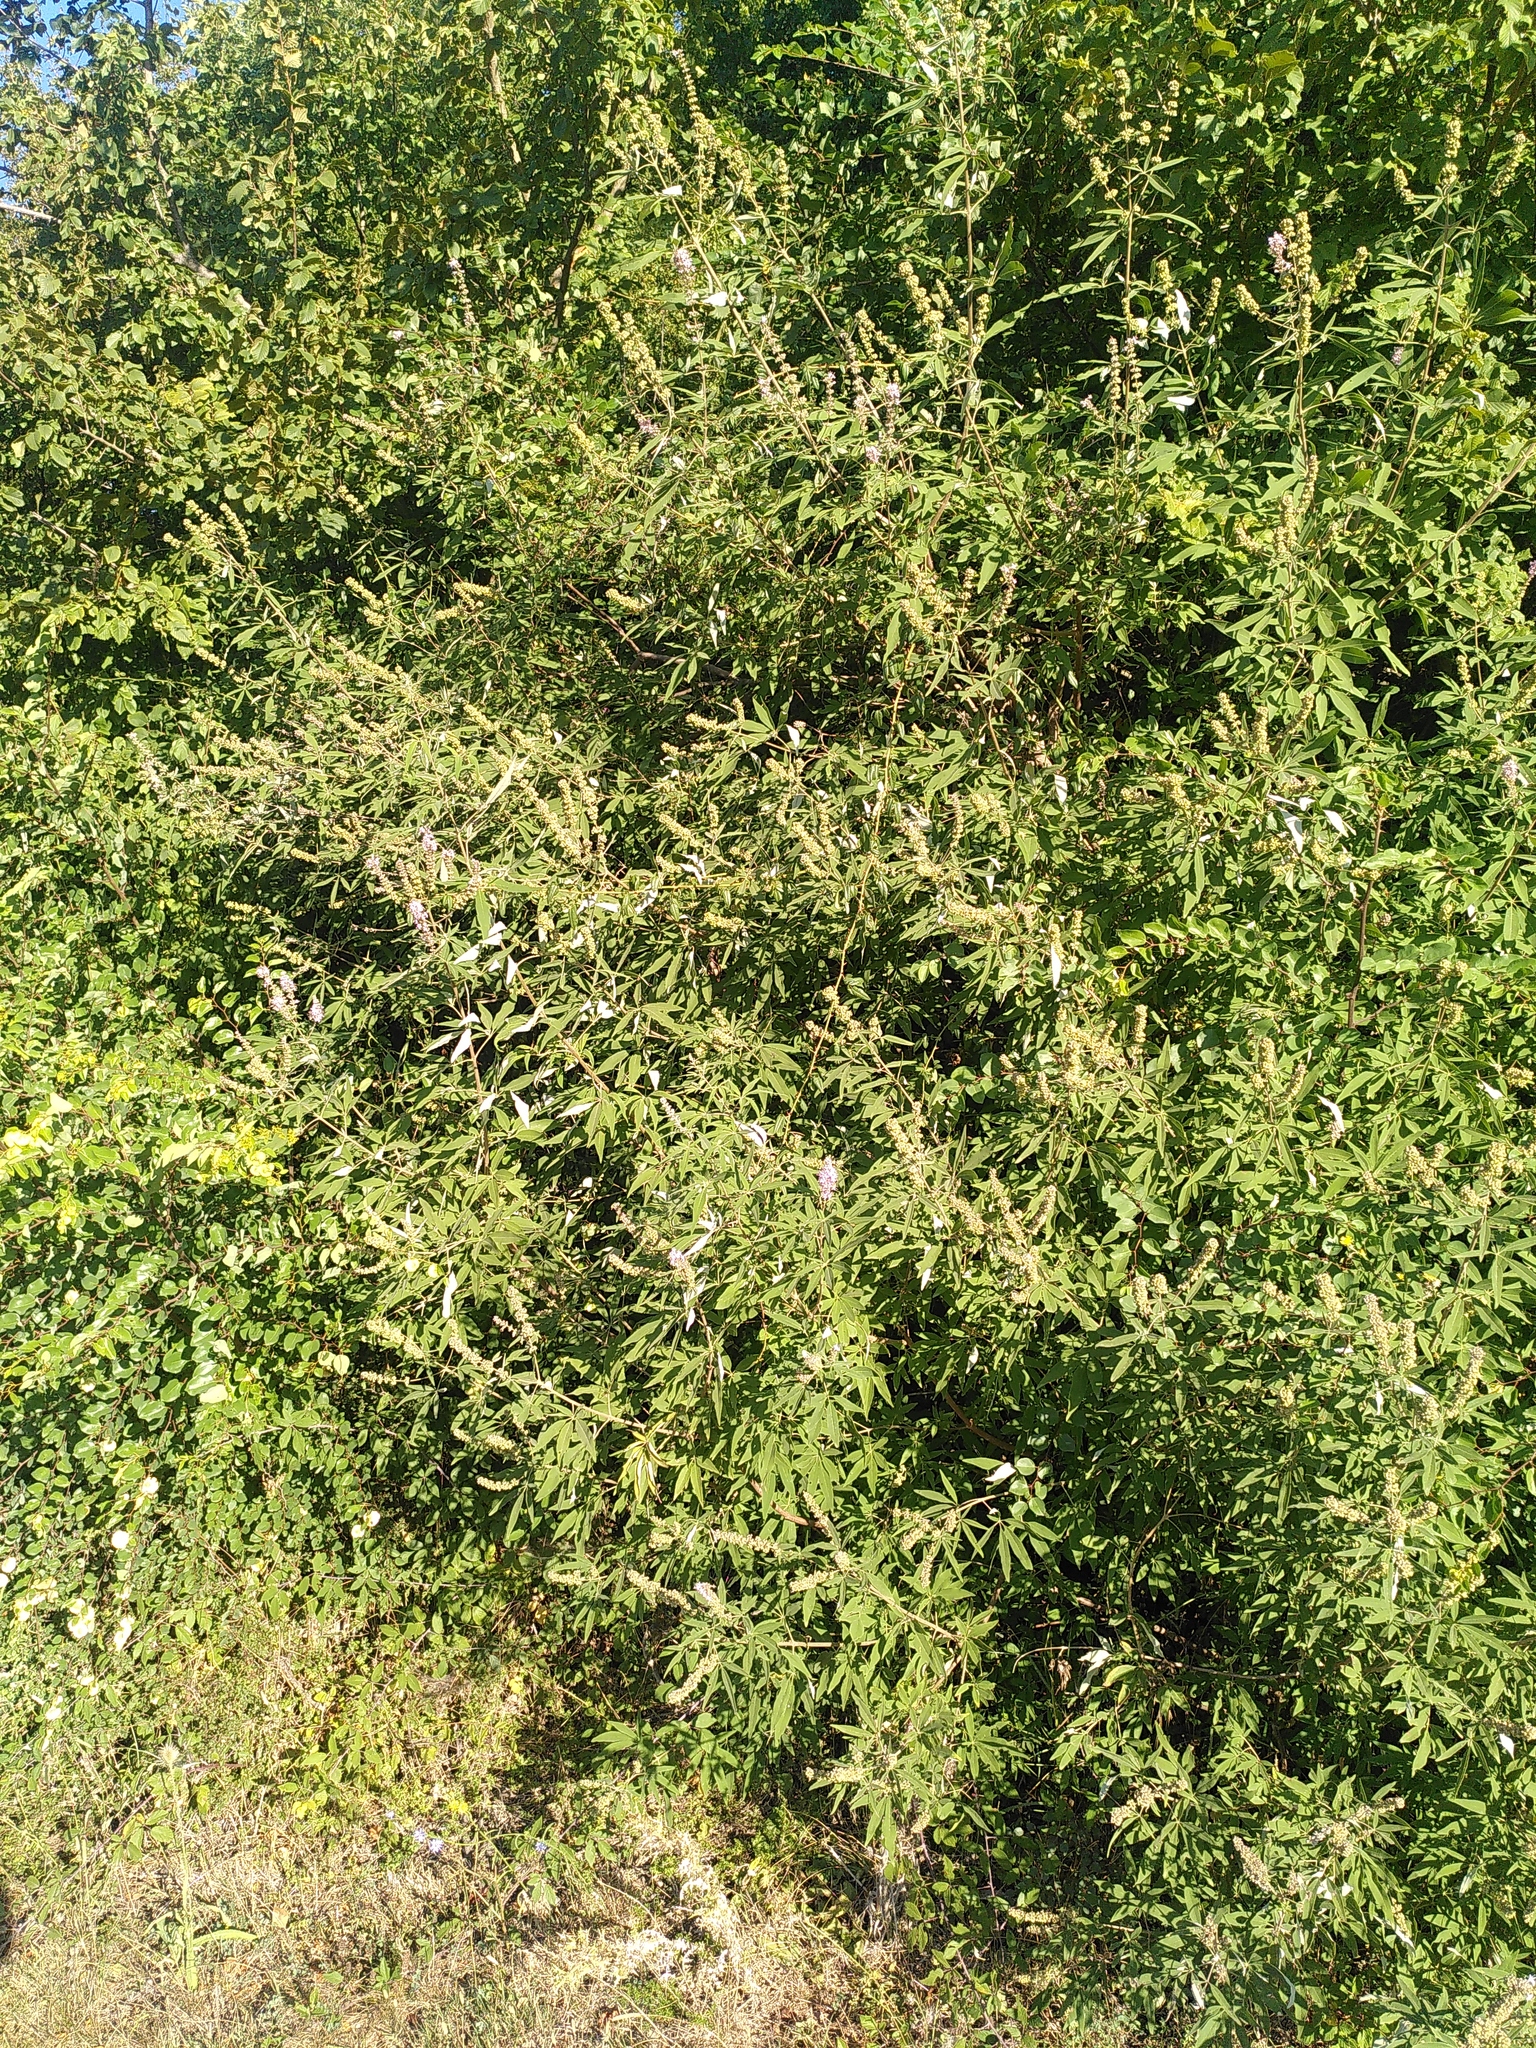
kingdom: Plantae
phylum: Tracheophyta
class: Magnoliopsida
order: Lamiales
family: Lamiaceae
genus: Vitex
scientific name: Vitex agnus-castus
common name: Chasteberry
